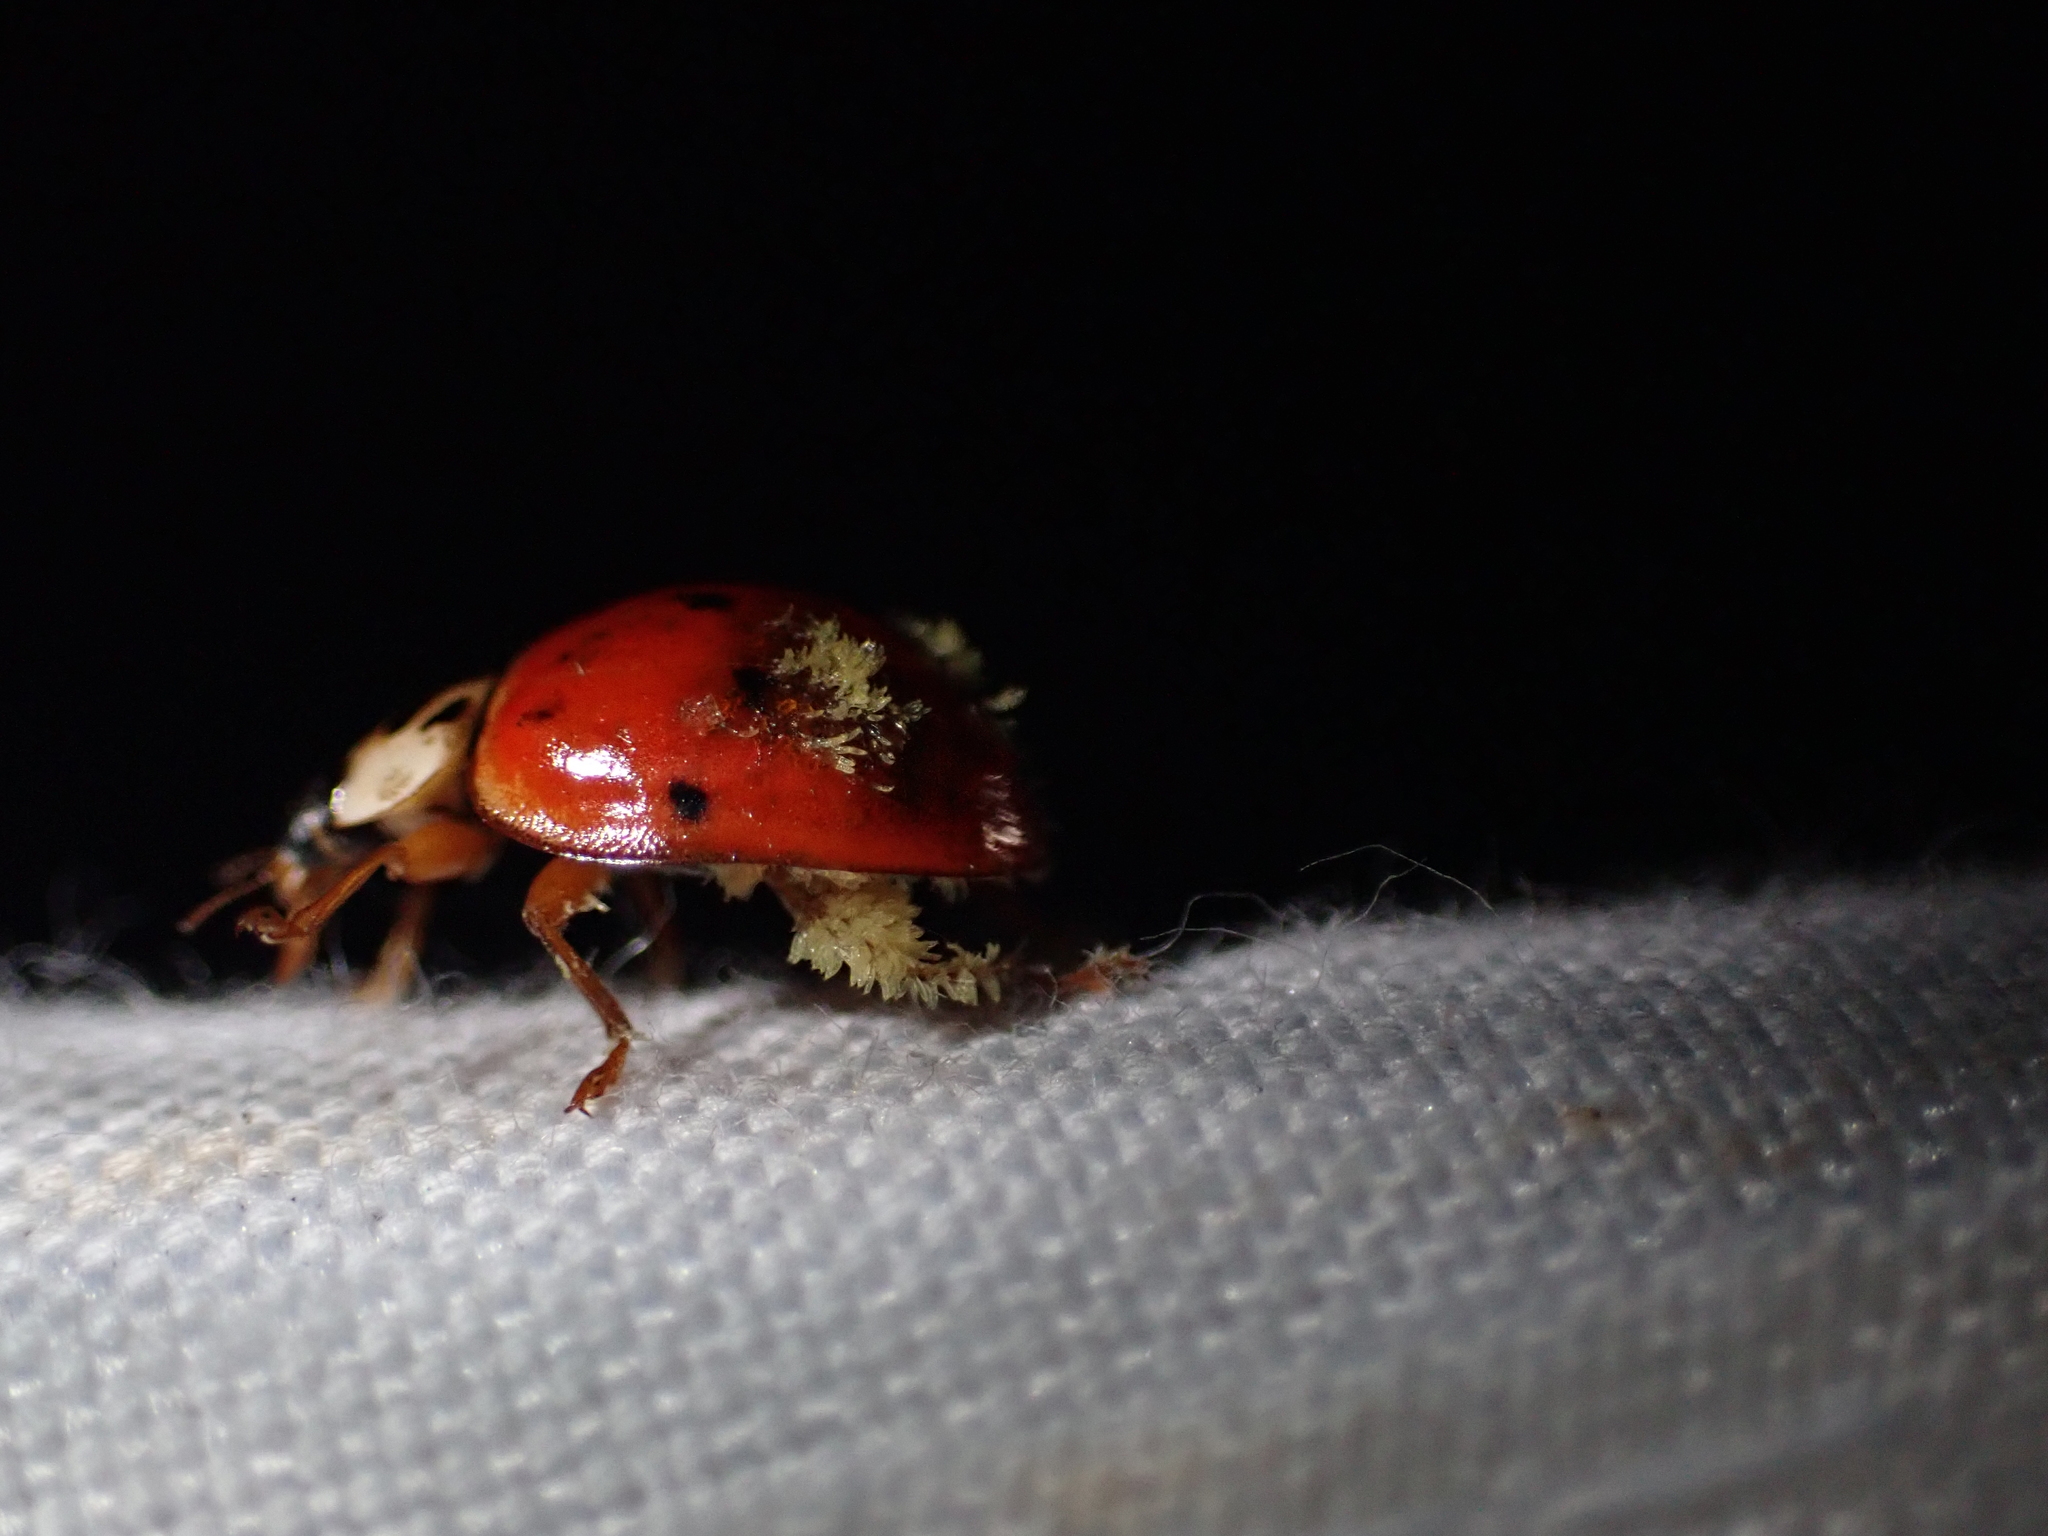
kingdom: Fungi
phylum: Ascomycota
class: Laboulbeniomycetes
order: Laboulbeniales
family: Laboulbeniaceae
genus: Hesperomyces
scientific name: Hesperomyces harmoniae
